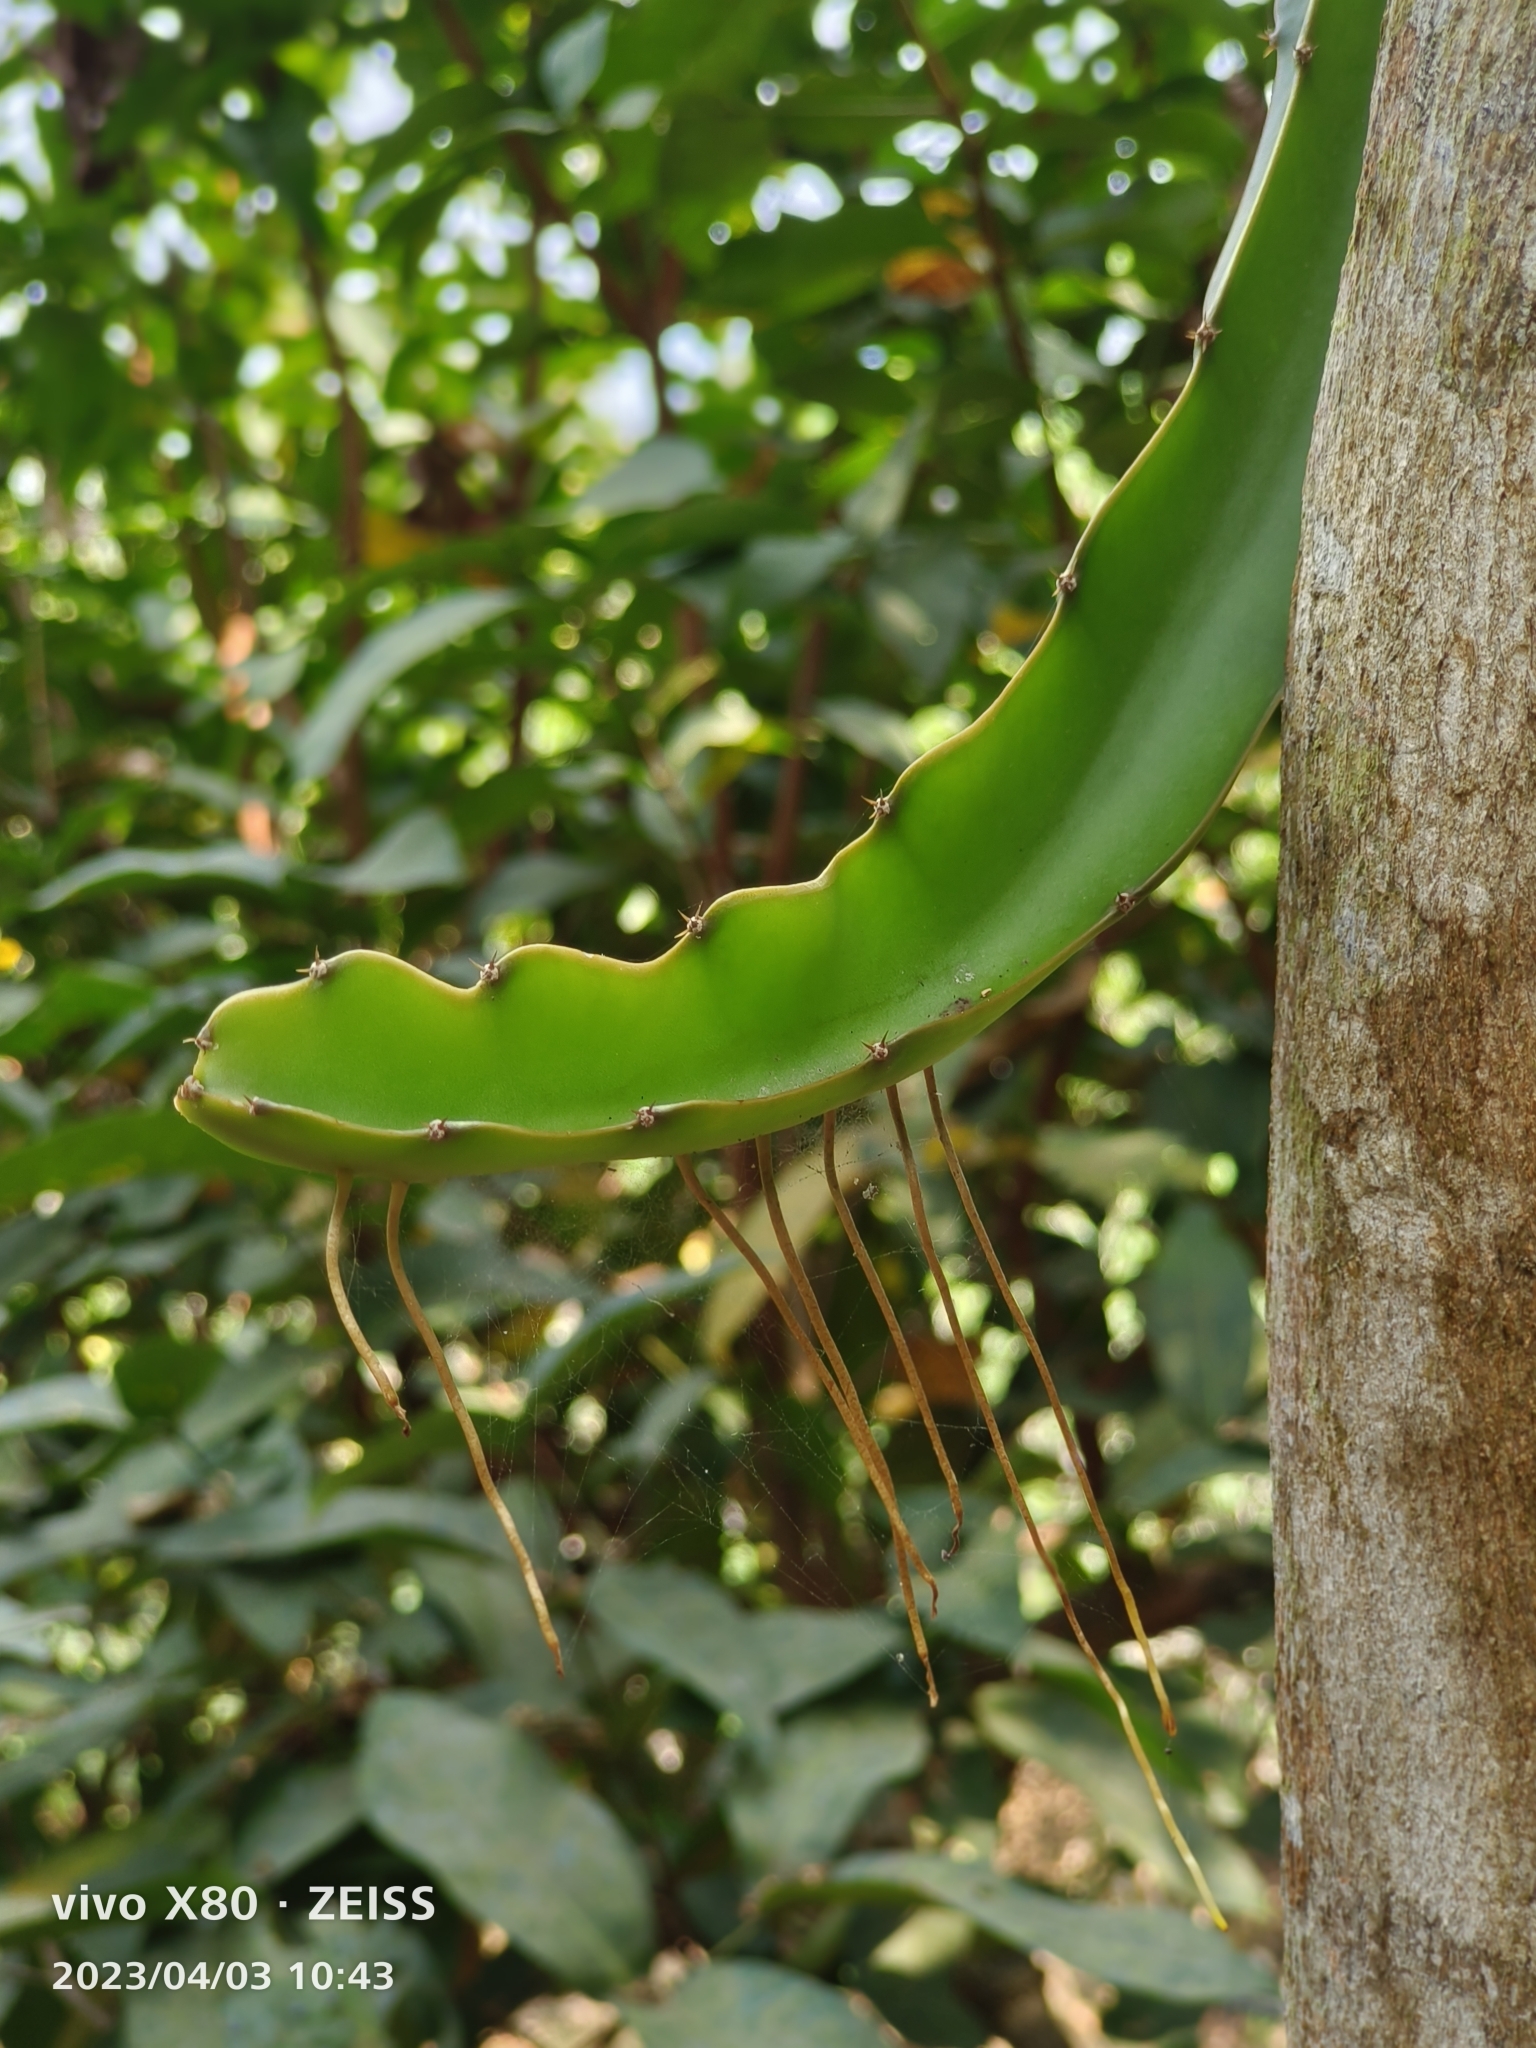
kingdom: Plantae
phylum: Tracheophyta
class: Magnoliopsida
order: Caryophyllales
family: Cactaceae
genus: Selenicereus
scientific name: Selenicereus undatus
